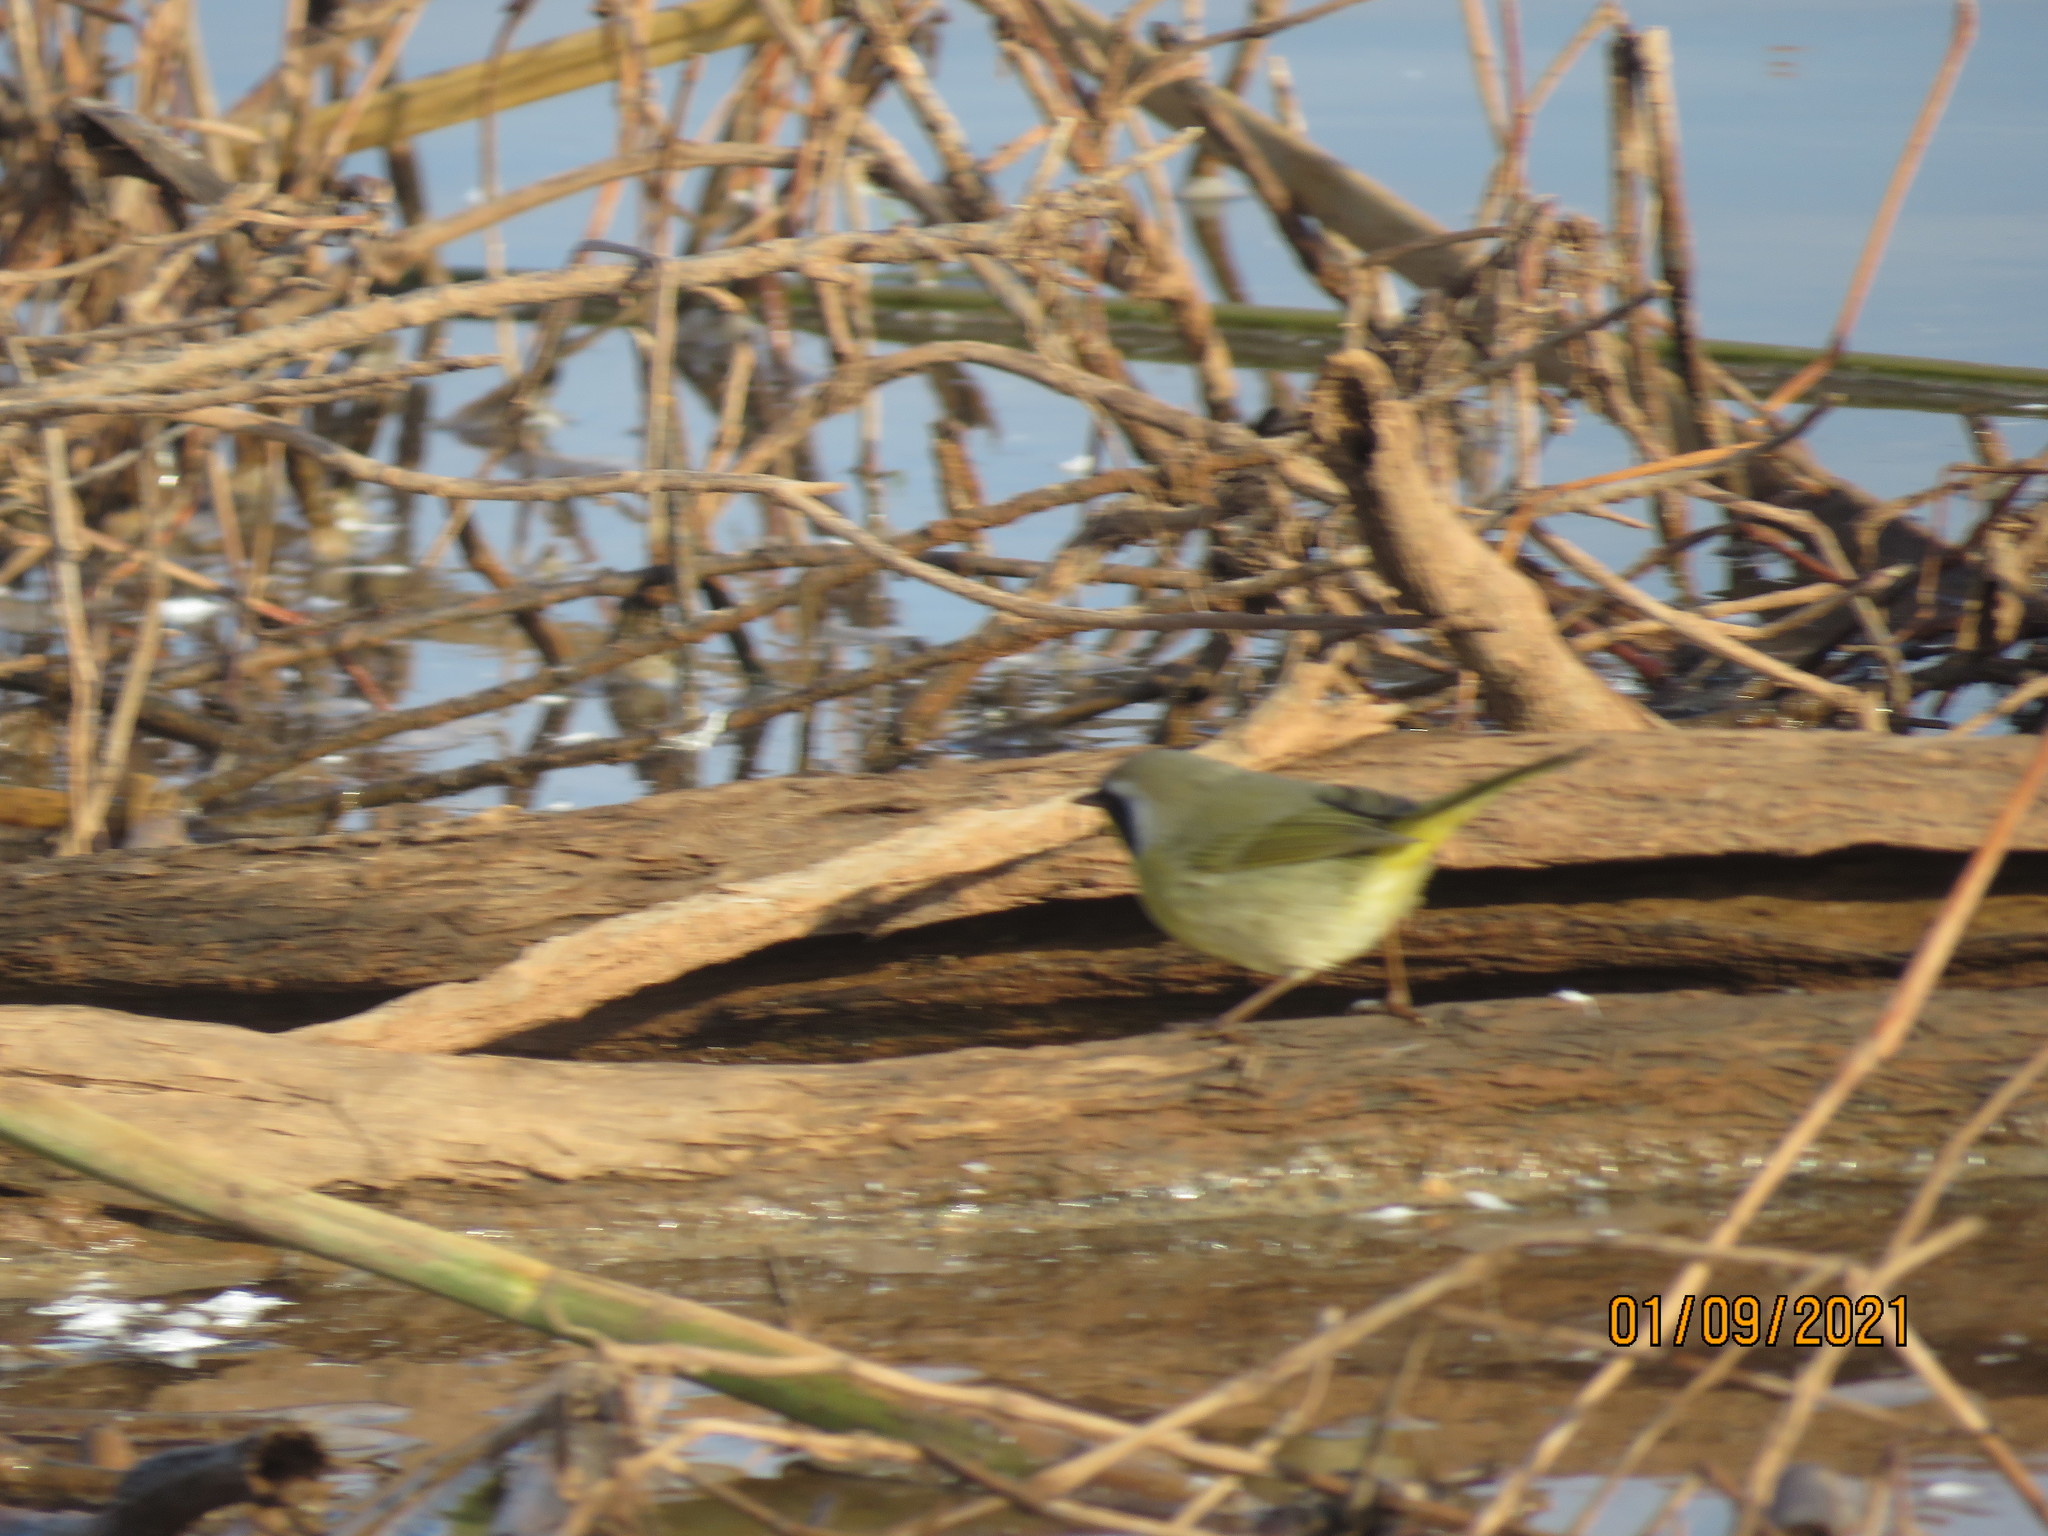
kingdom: Animalia
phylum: Chordata
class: Aves
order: Passeriformes
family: Parulidae
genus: Geothlypis
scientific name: Geothlypis trichas
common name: Common yellowthroat
